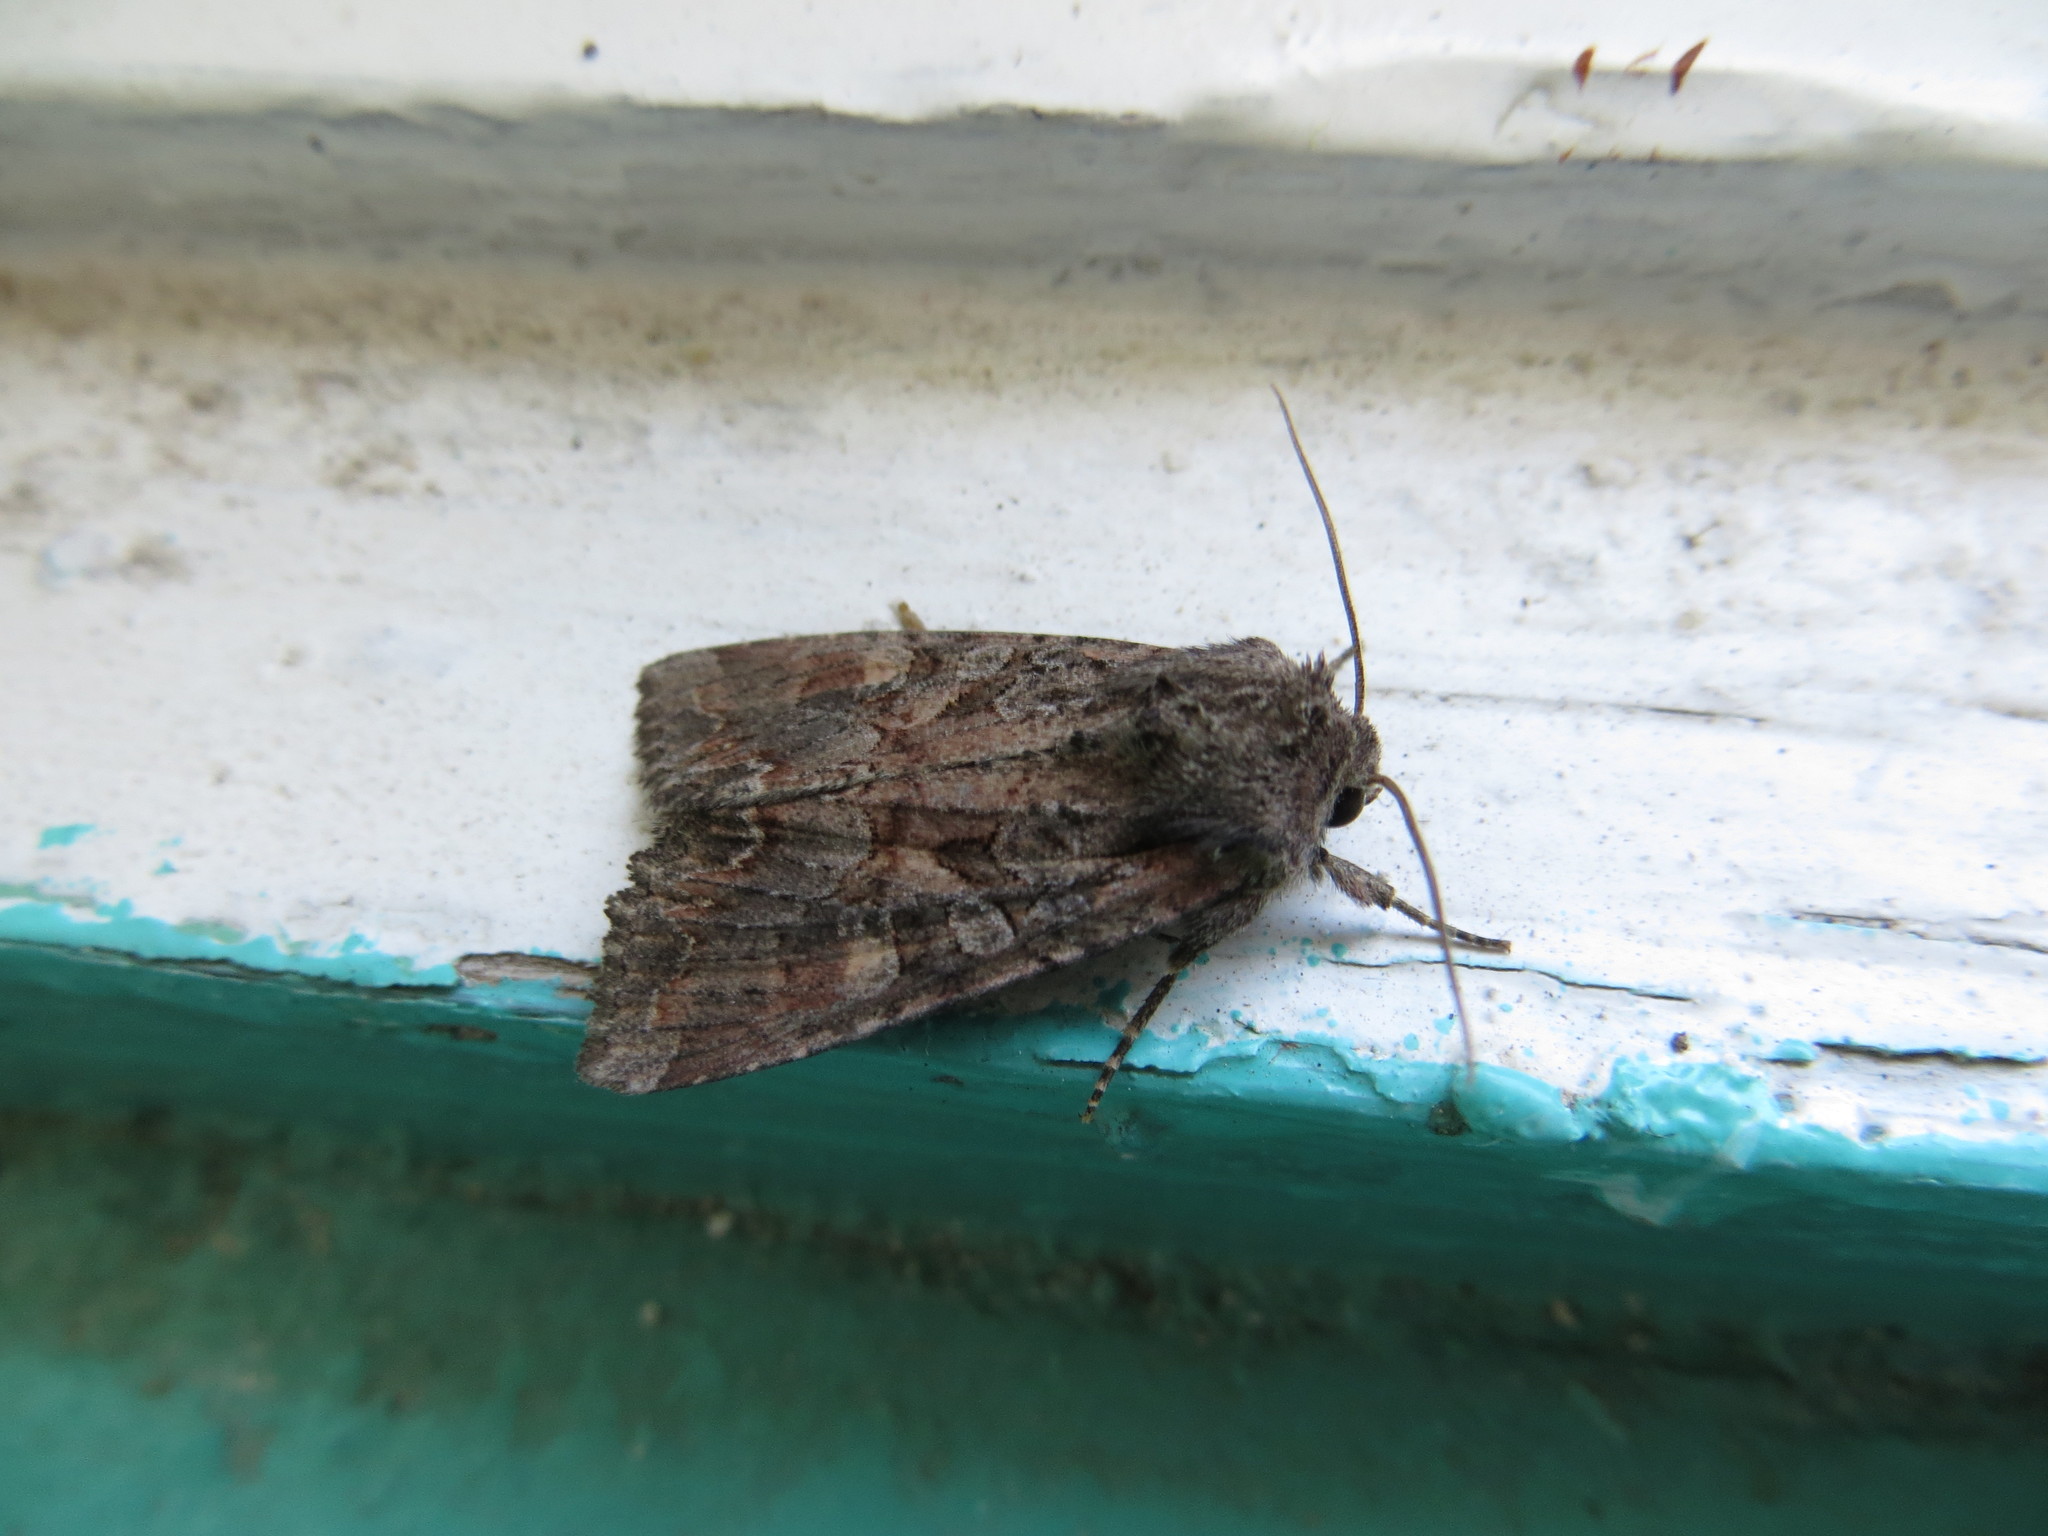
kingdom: Animalia
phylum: Arthropoda
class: Insecta
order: Lepidoptera
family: Noctuidae
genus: Lacanobia
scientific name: Lacanobia aliena
